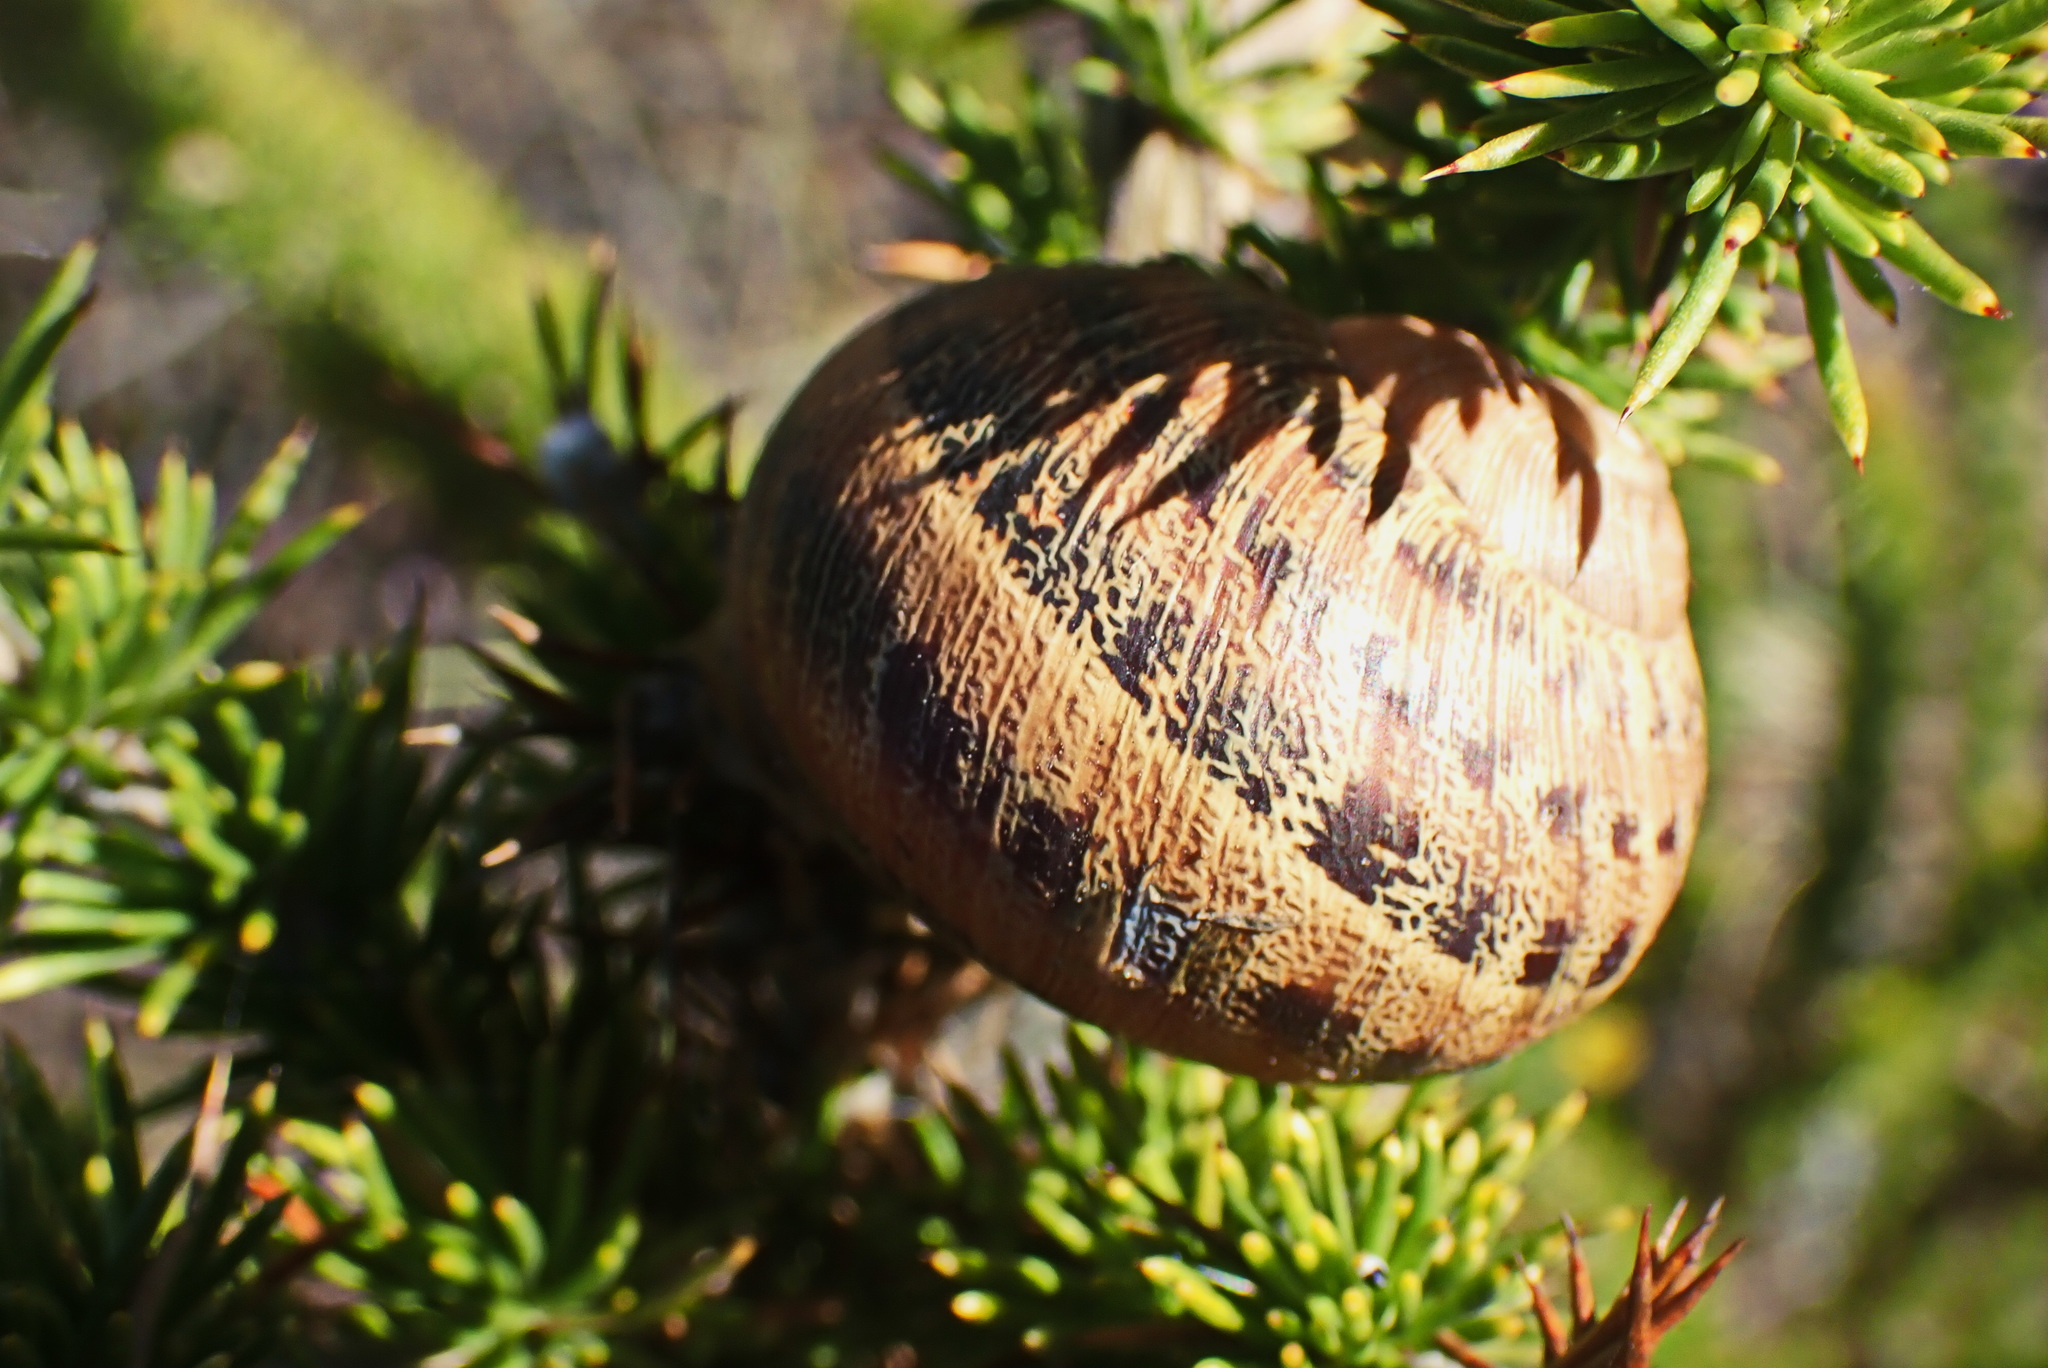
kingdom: Animalia
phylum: Mollusca
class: Gastropoda
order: Stylommatophora
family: Helicidae
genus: Cornu
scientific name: Cornu aspersum
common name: Brown garden snail
